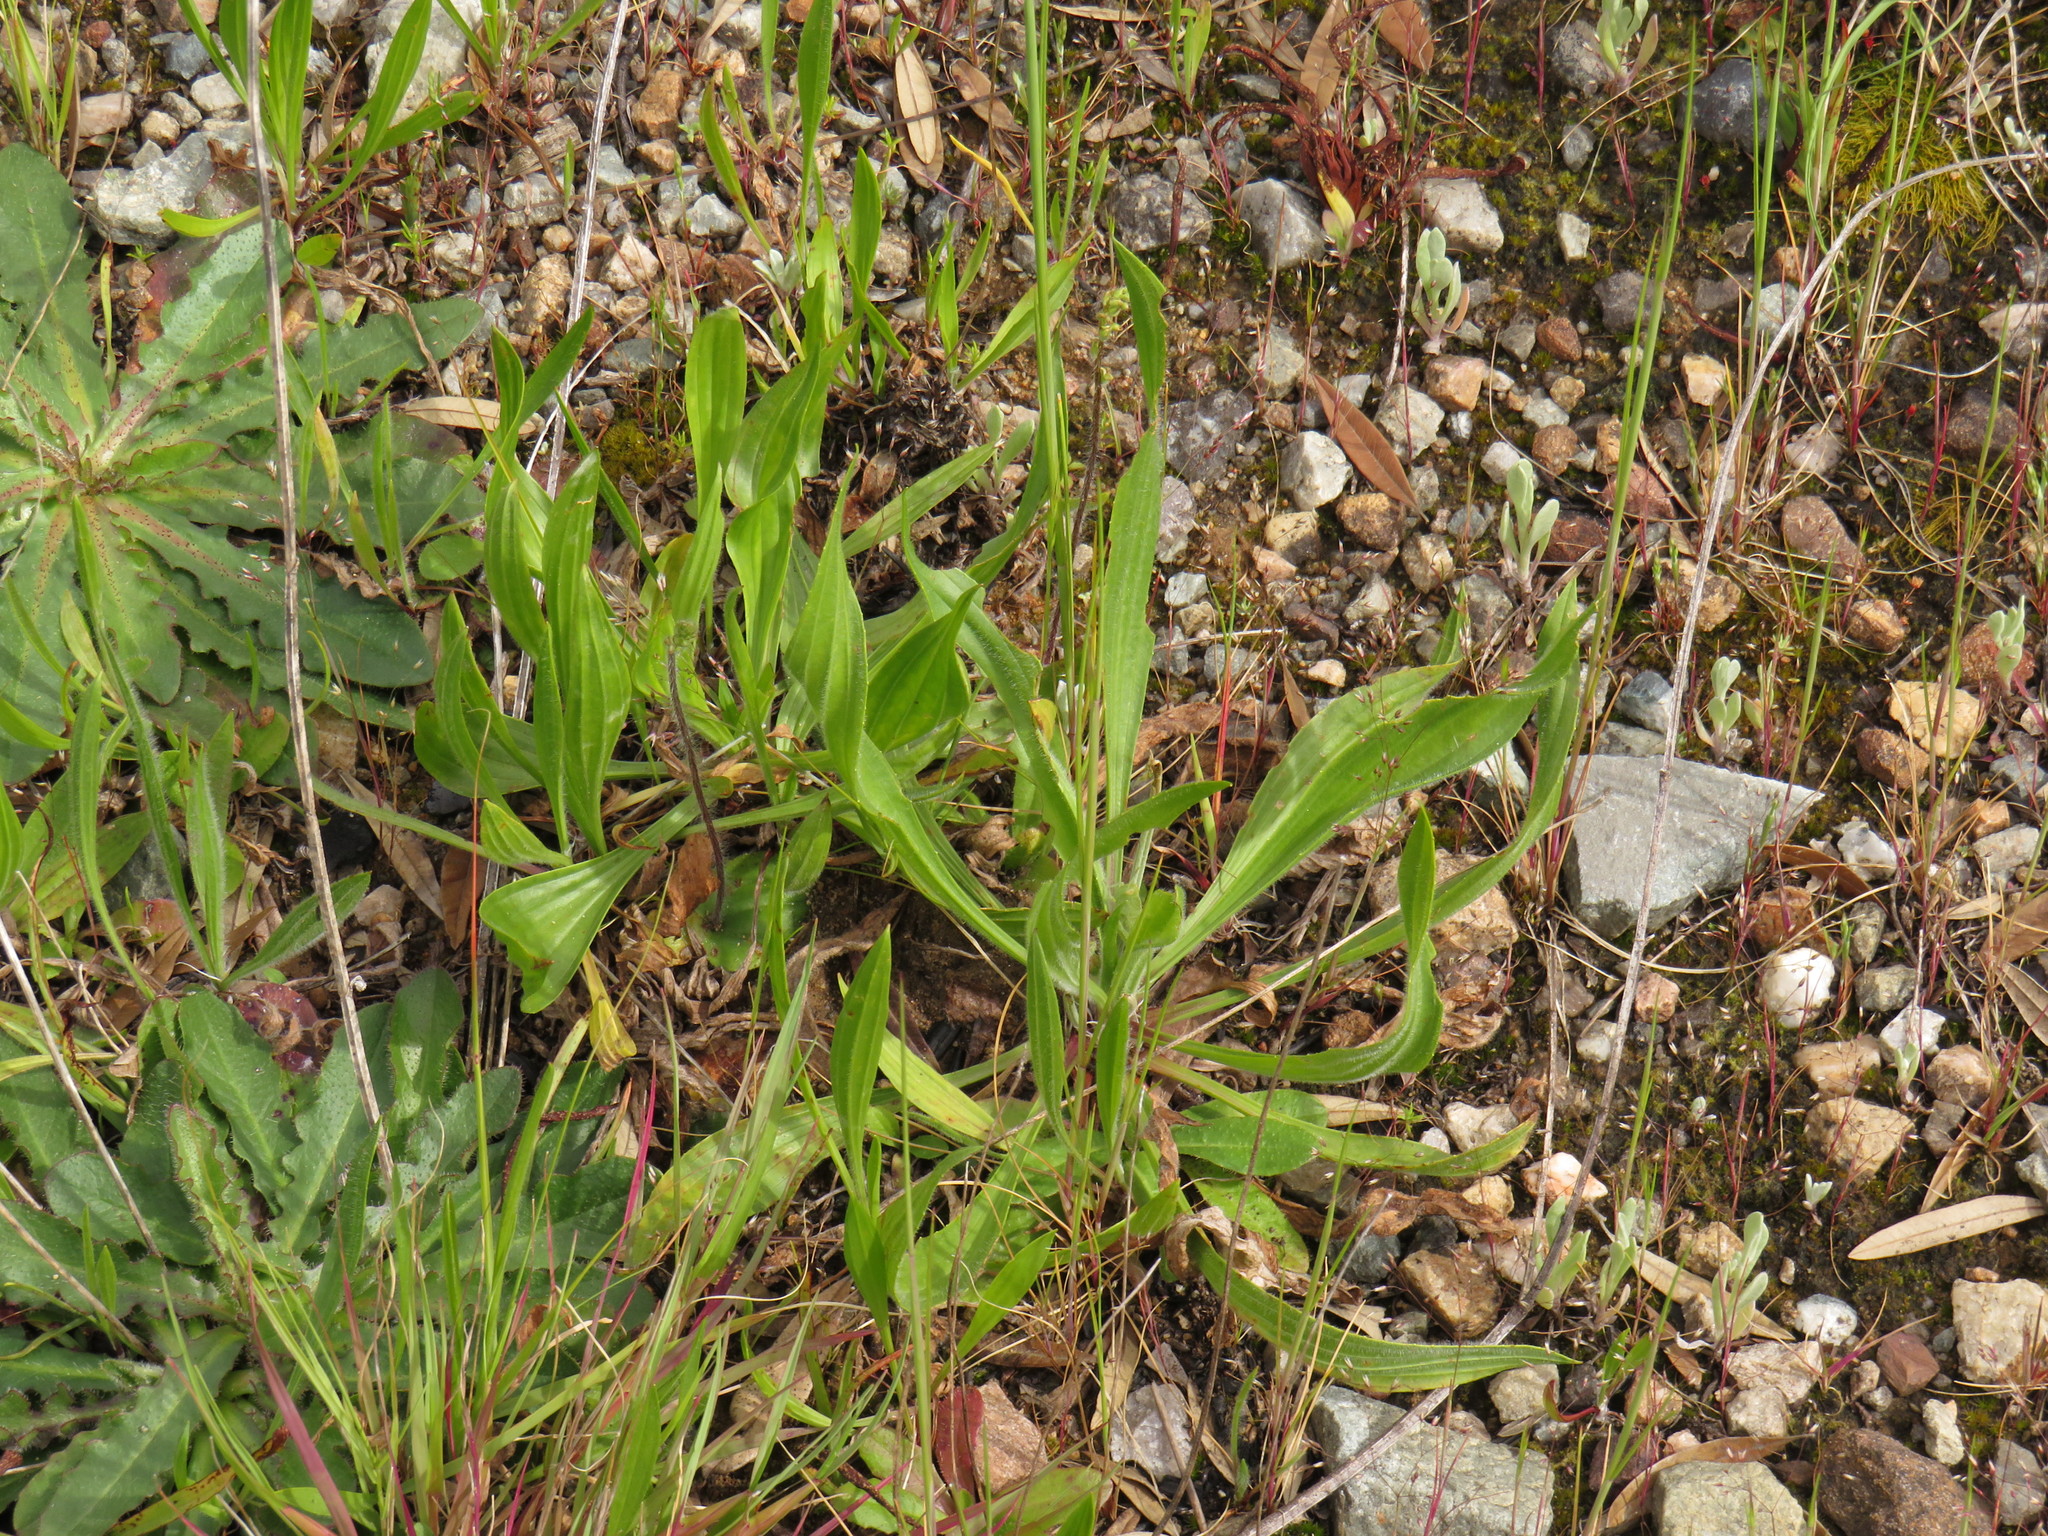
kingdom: Plantae
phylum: Tracheophyta
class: Magnoliopsida
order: Lamiales
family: Plantaginaceae
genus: Plantago
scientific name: Plantago lanceolata
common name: Ribwort plantain
